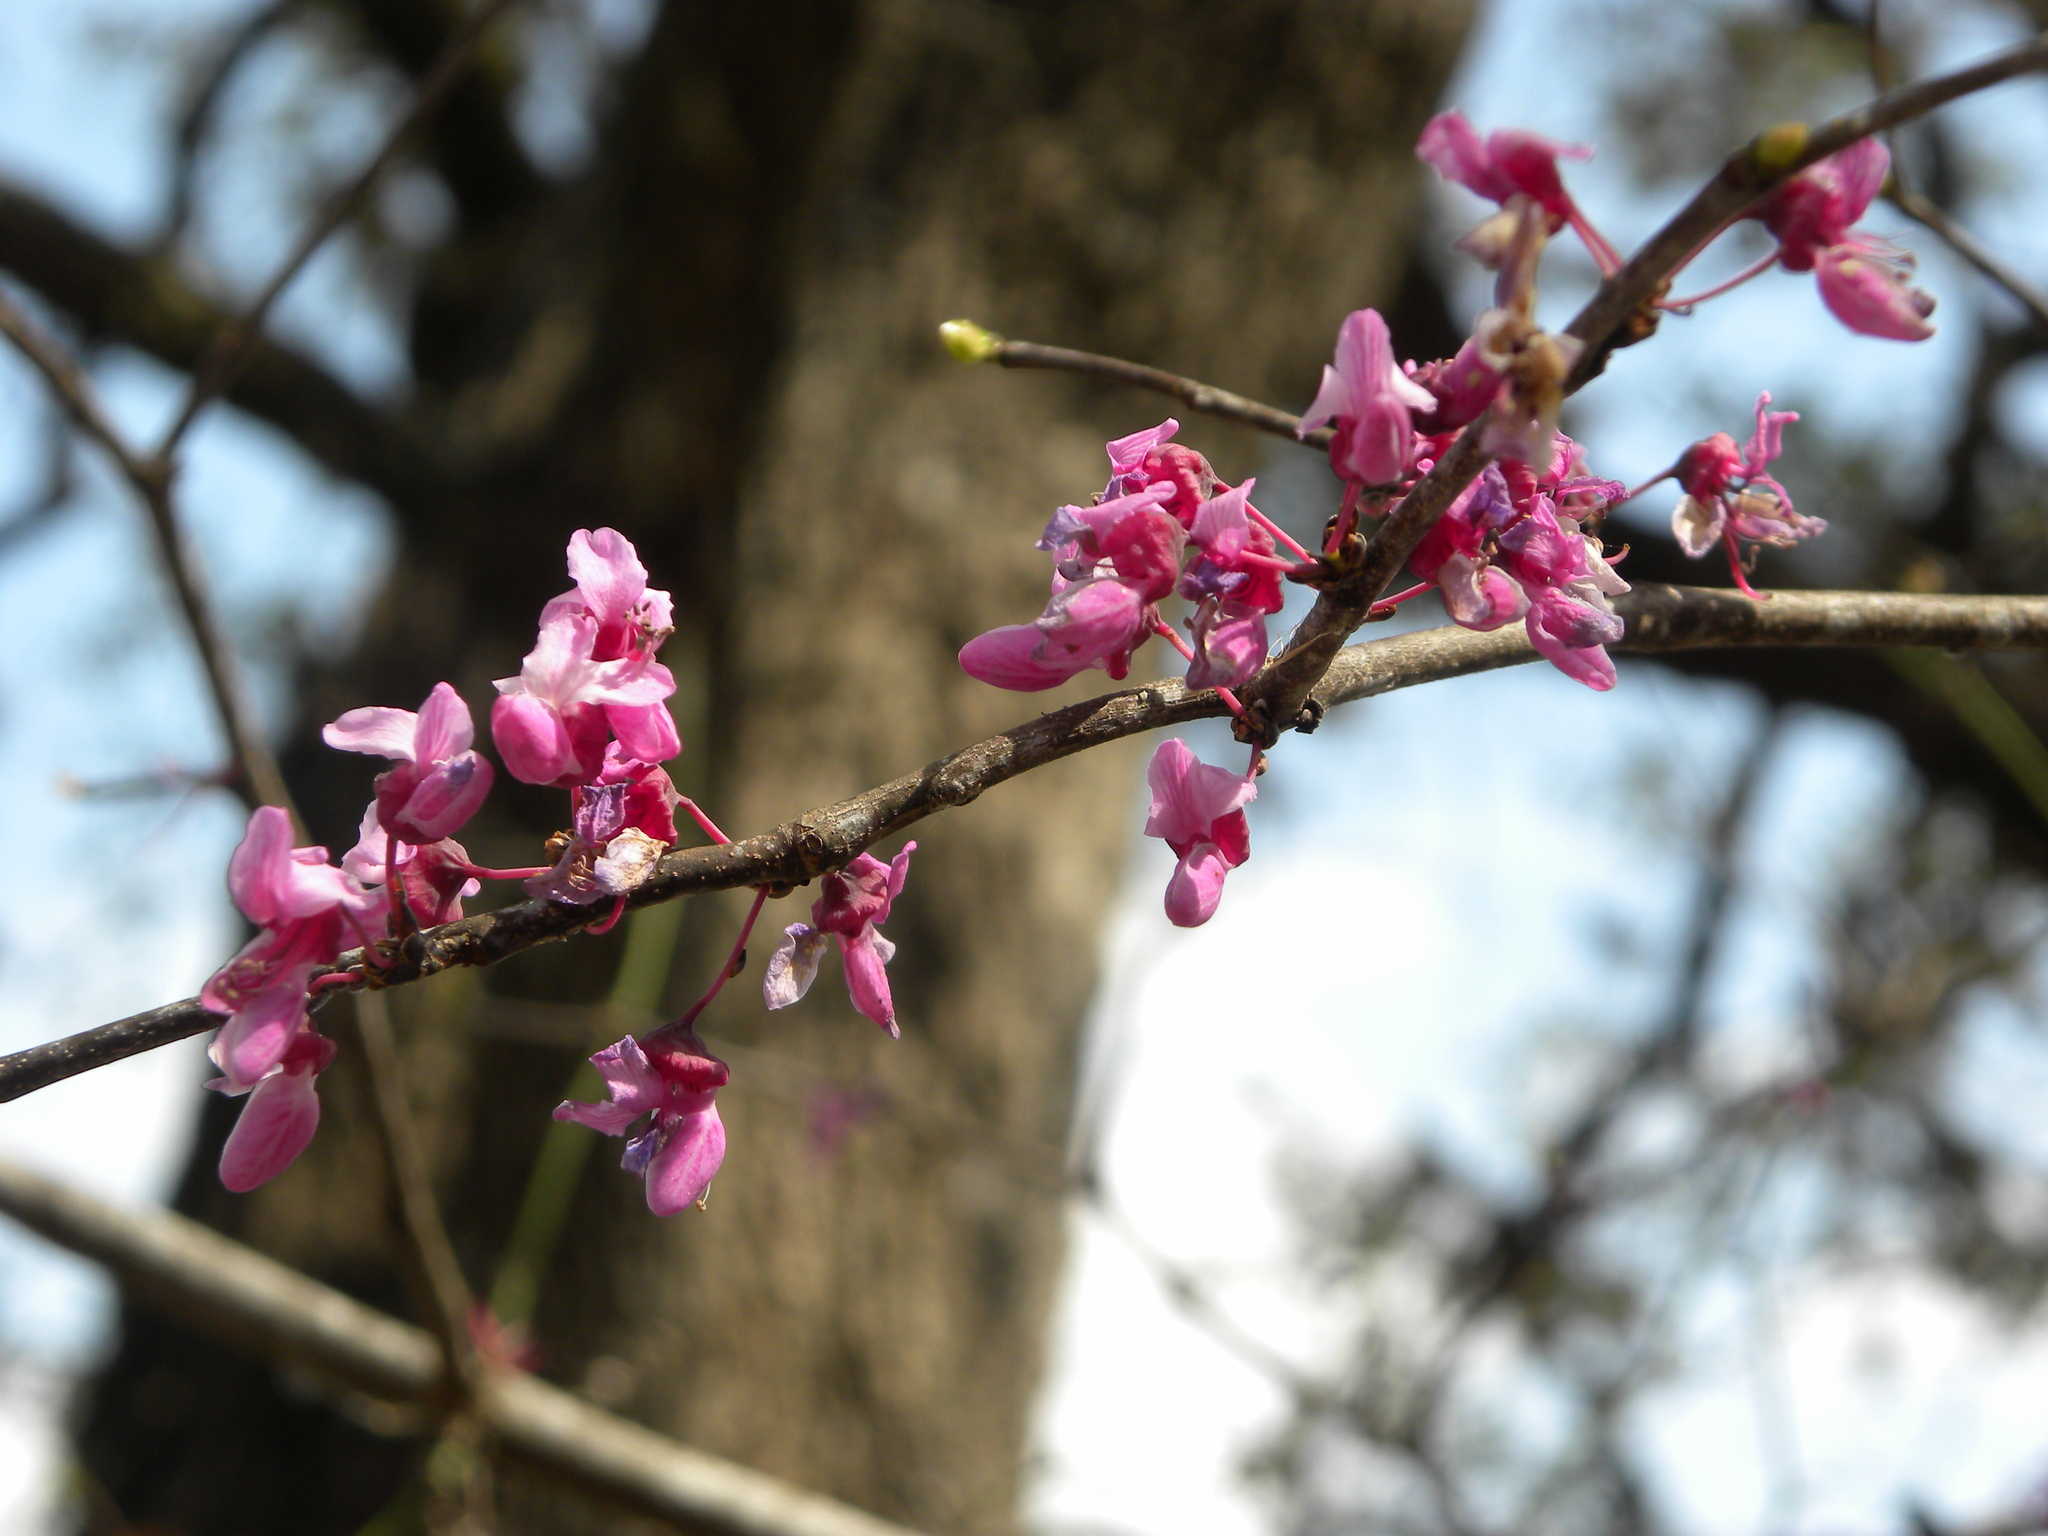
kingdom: Plantae
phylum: Tracheophyta
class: Magnoliopsida
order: Fabales
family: Fabaceae
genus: Cercis
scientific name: Cercis canadensis
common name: Eastern redbud
